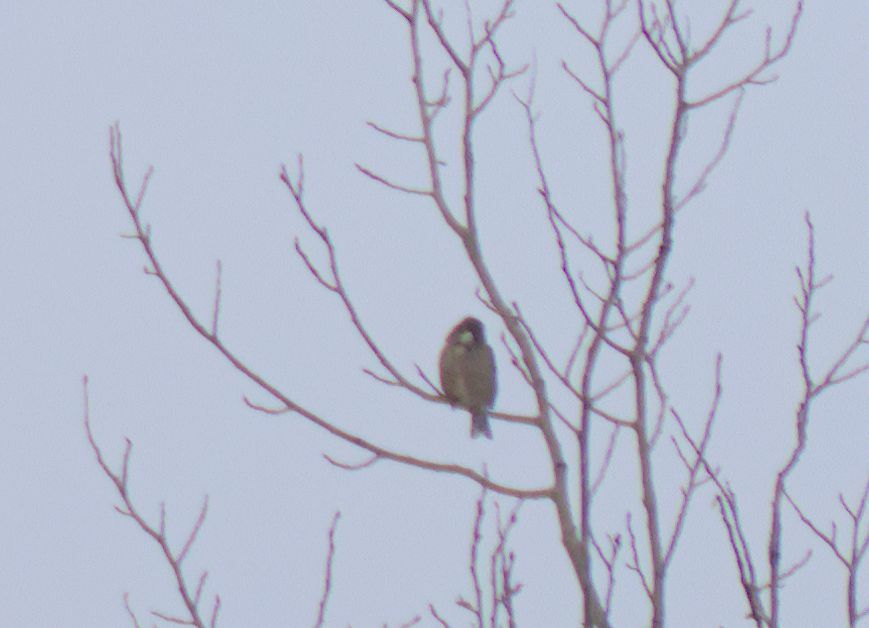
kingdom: Animalia
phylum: Chordata
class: Aves
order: Passeriformes
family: Passeridae
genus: Passer
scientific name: Passer domesticus
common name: House sparrow
